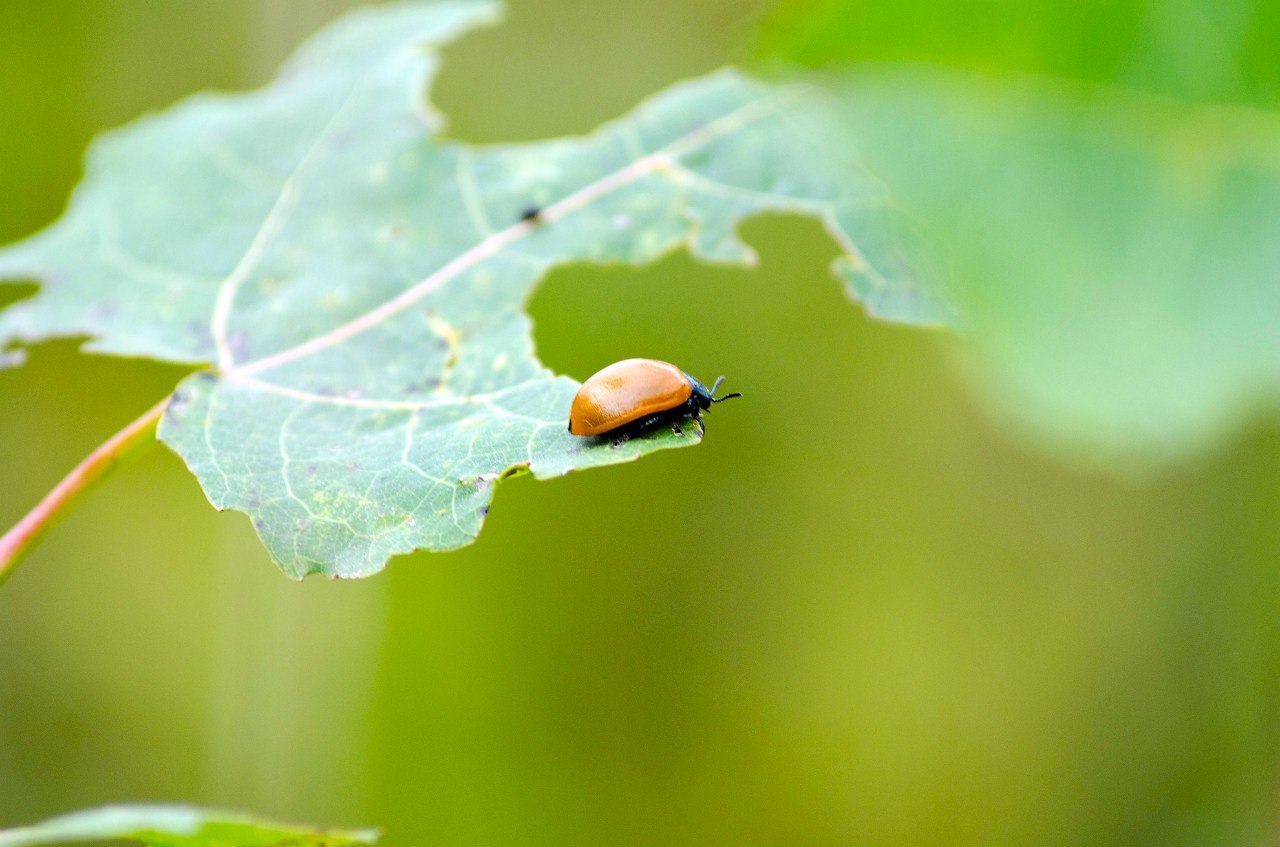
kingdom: Animalia
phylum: Arthropoda
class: Insecta
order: Coleoptera
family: Chrysomelidae
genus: Chrysomela
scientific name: Chrysomela populi
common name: Red poplar leaf beetle
